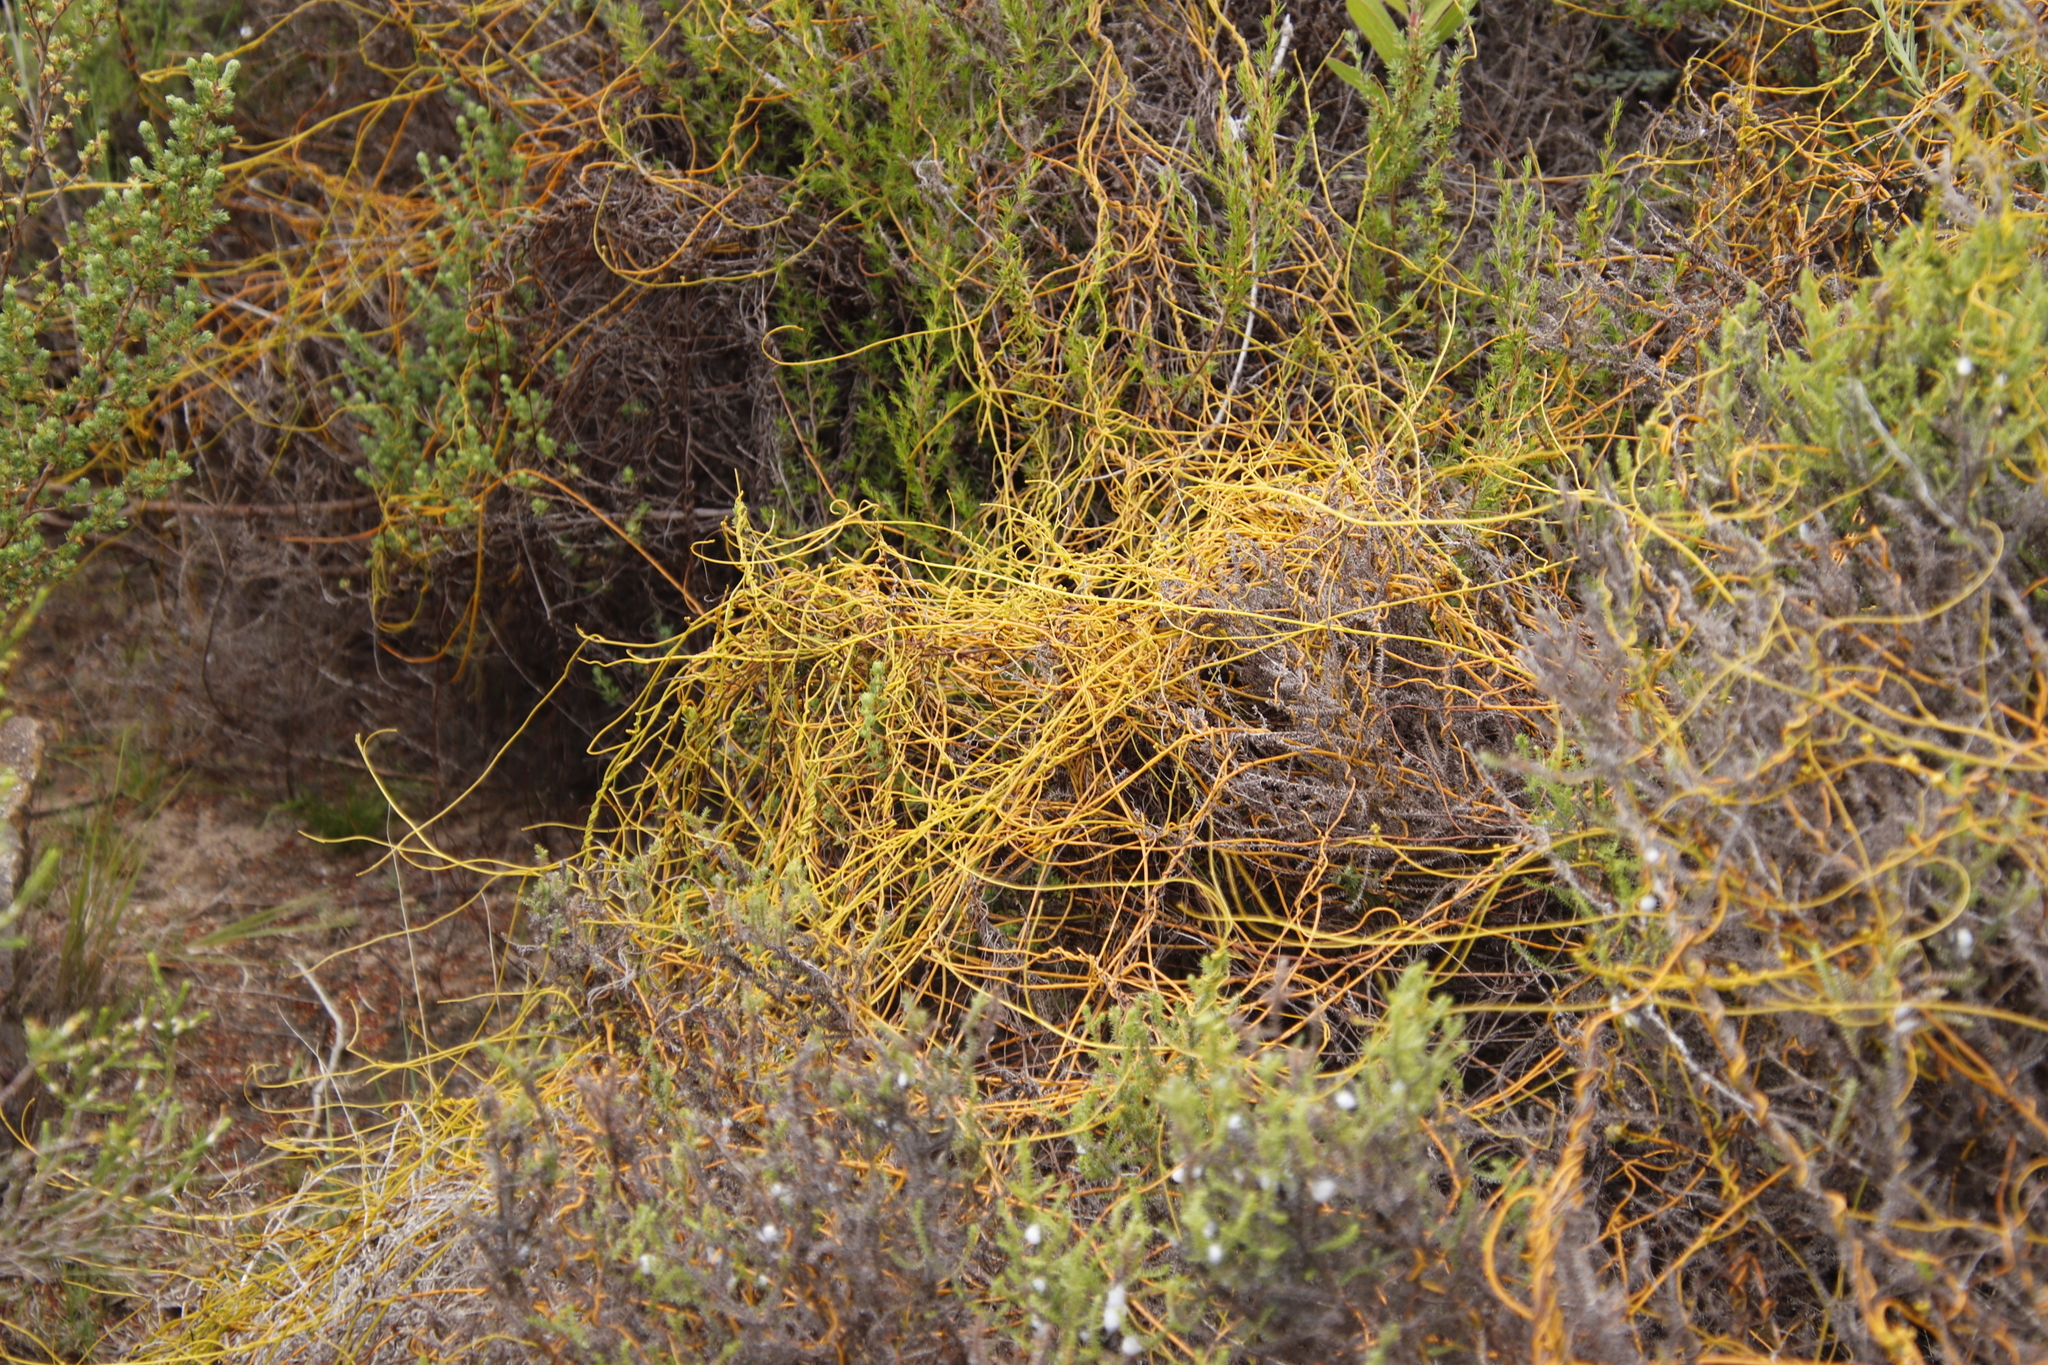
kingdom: Plantae
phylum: Tracheophyta
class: Magnoliopsida
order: Laurales
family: Lauraceae
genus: Cassytha
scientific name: Cassytha ciliolata
